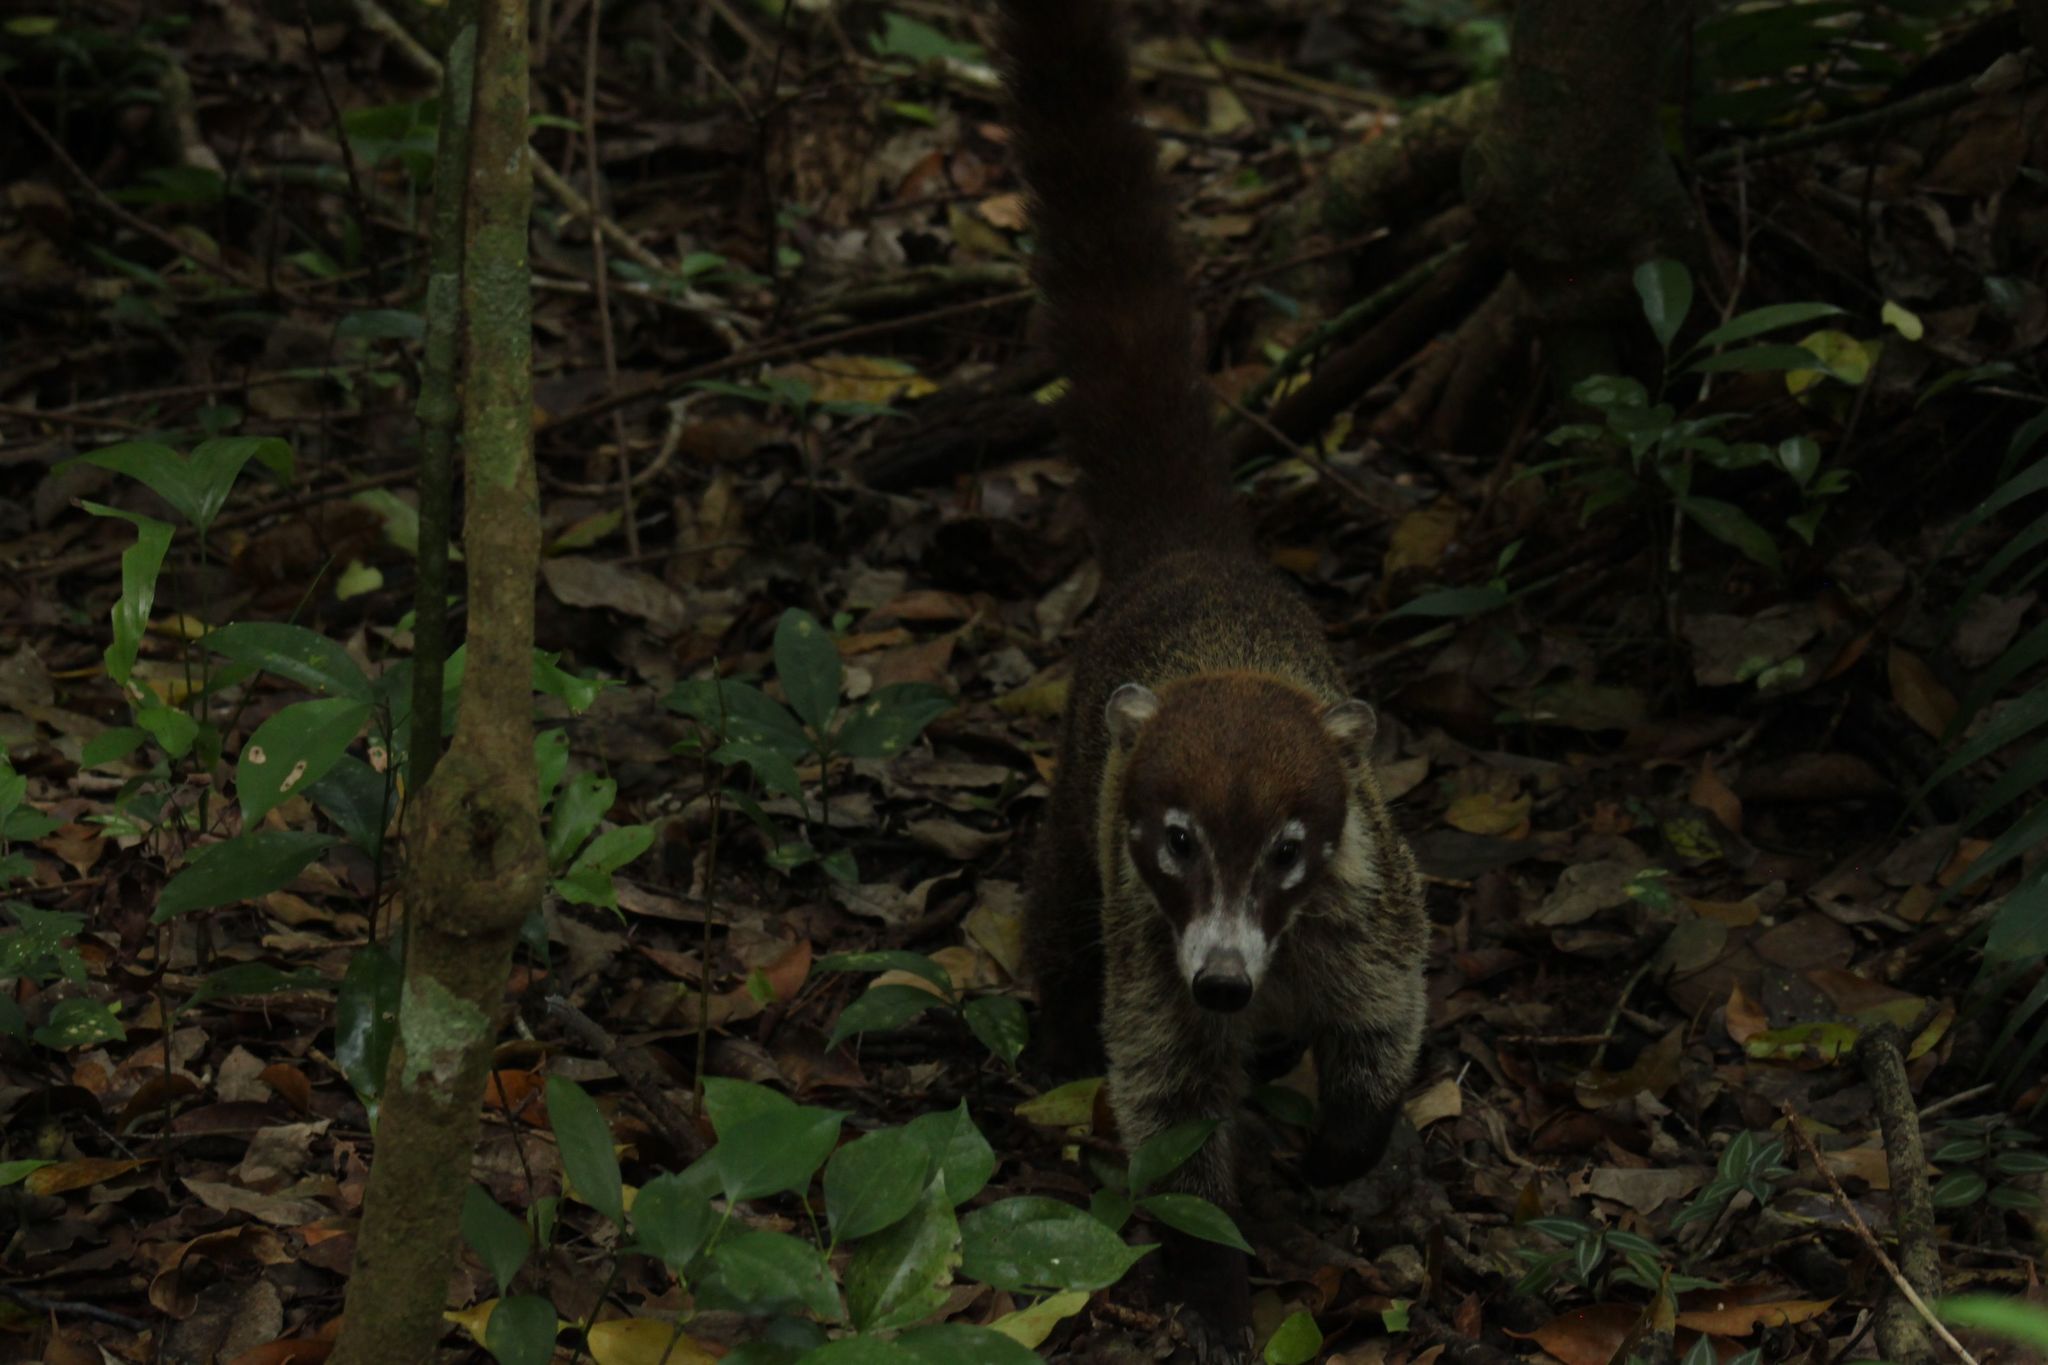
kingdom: Animalia
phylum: Chordata
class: Mammalia
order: Carnivora
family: Procyonidae
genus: Nasua
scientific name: Nasua narica
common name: White-nosed coati
